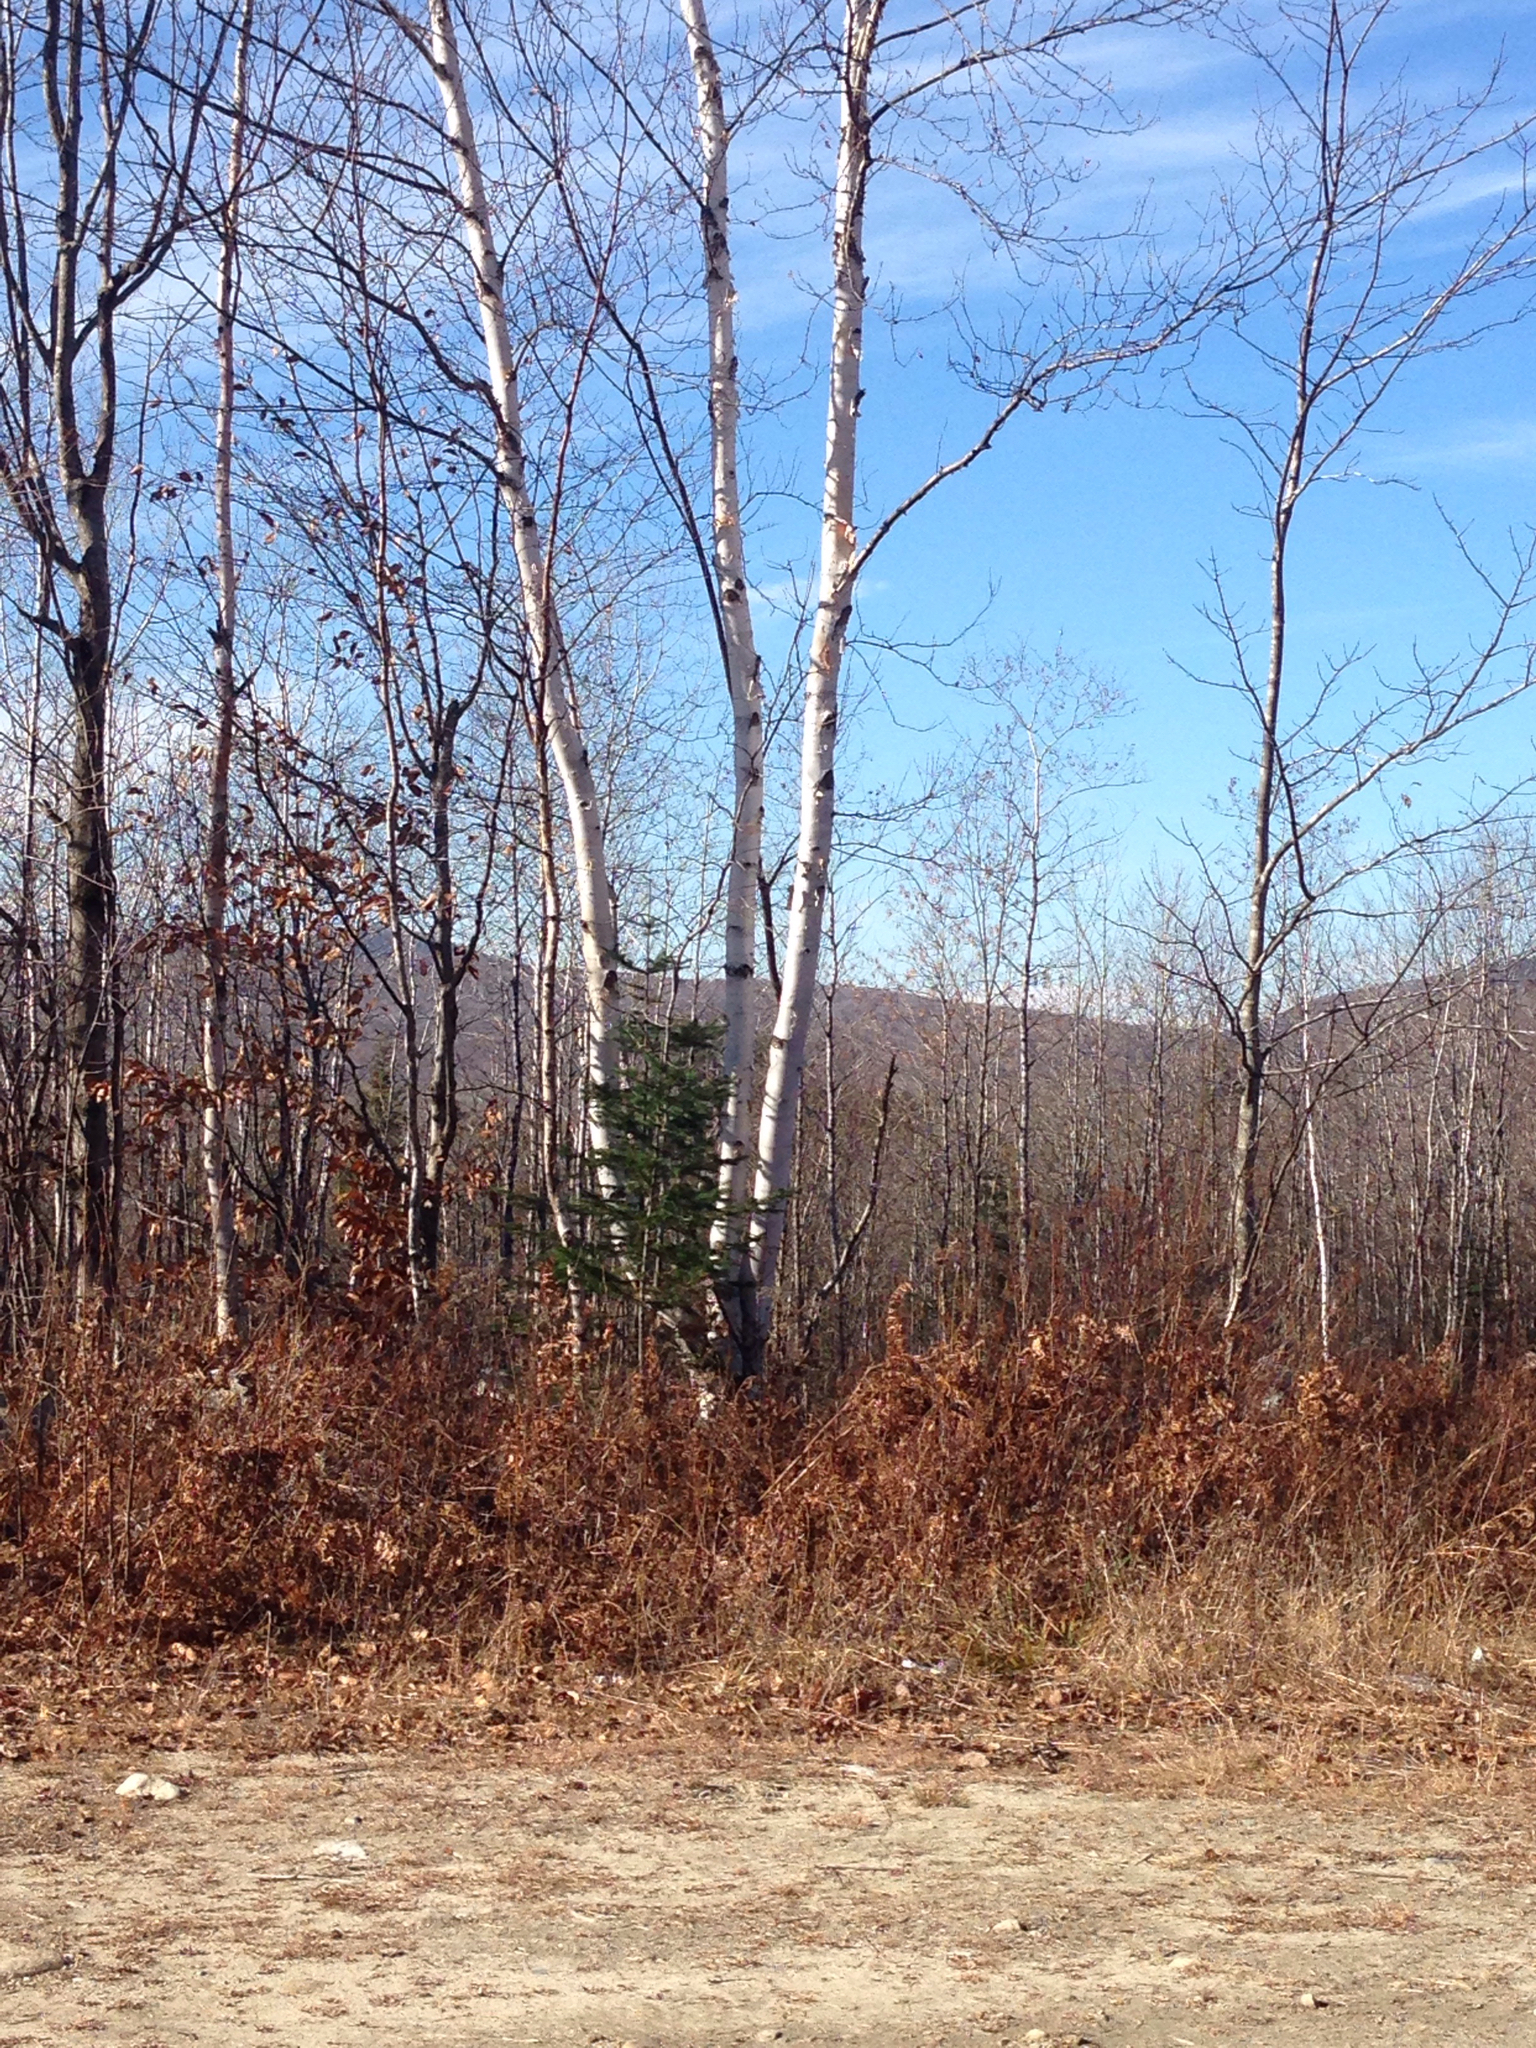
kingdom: Plantae
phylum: Tracheophyta
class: Magnoliopsida
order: Fagales
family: Betulaceae
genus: Betula
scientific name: Betula papyrifera
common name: Paper birch
